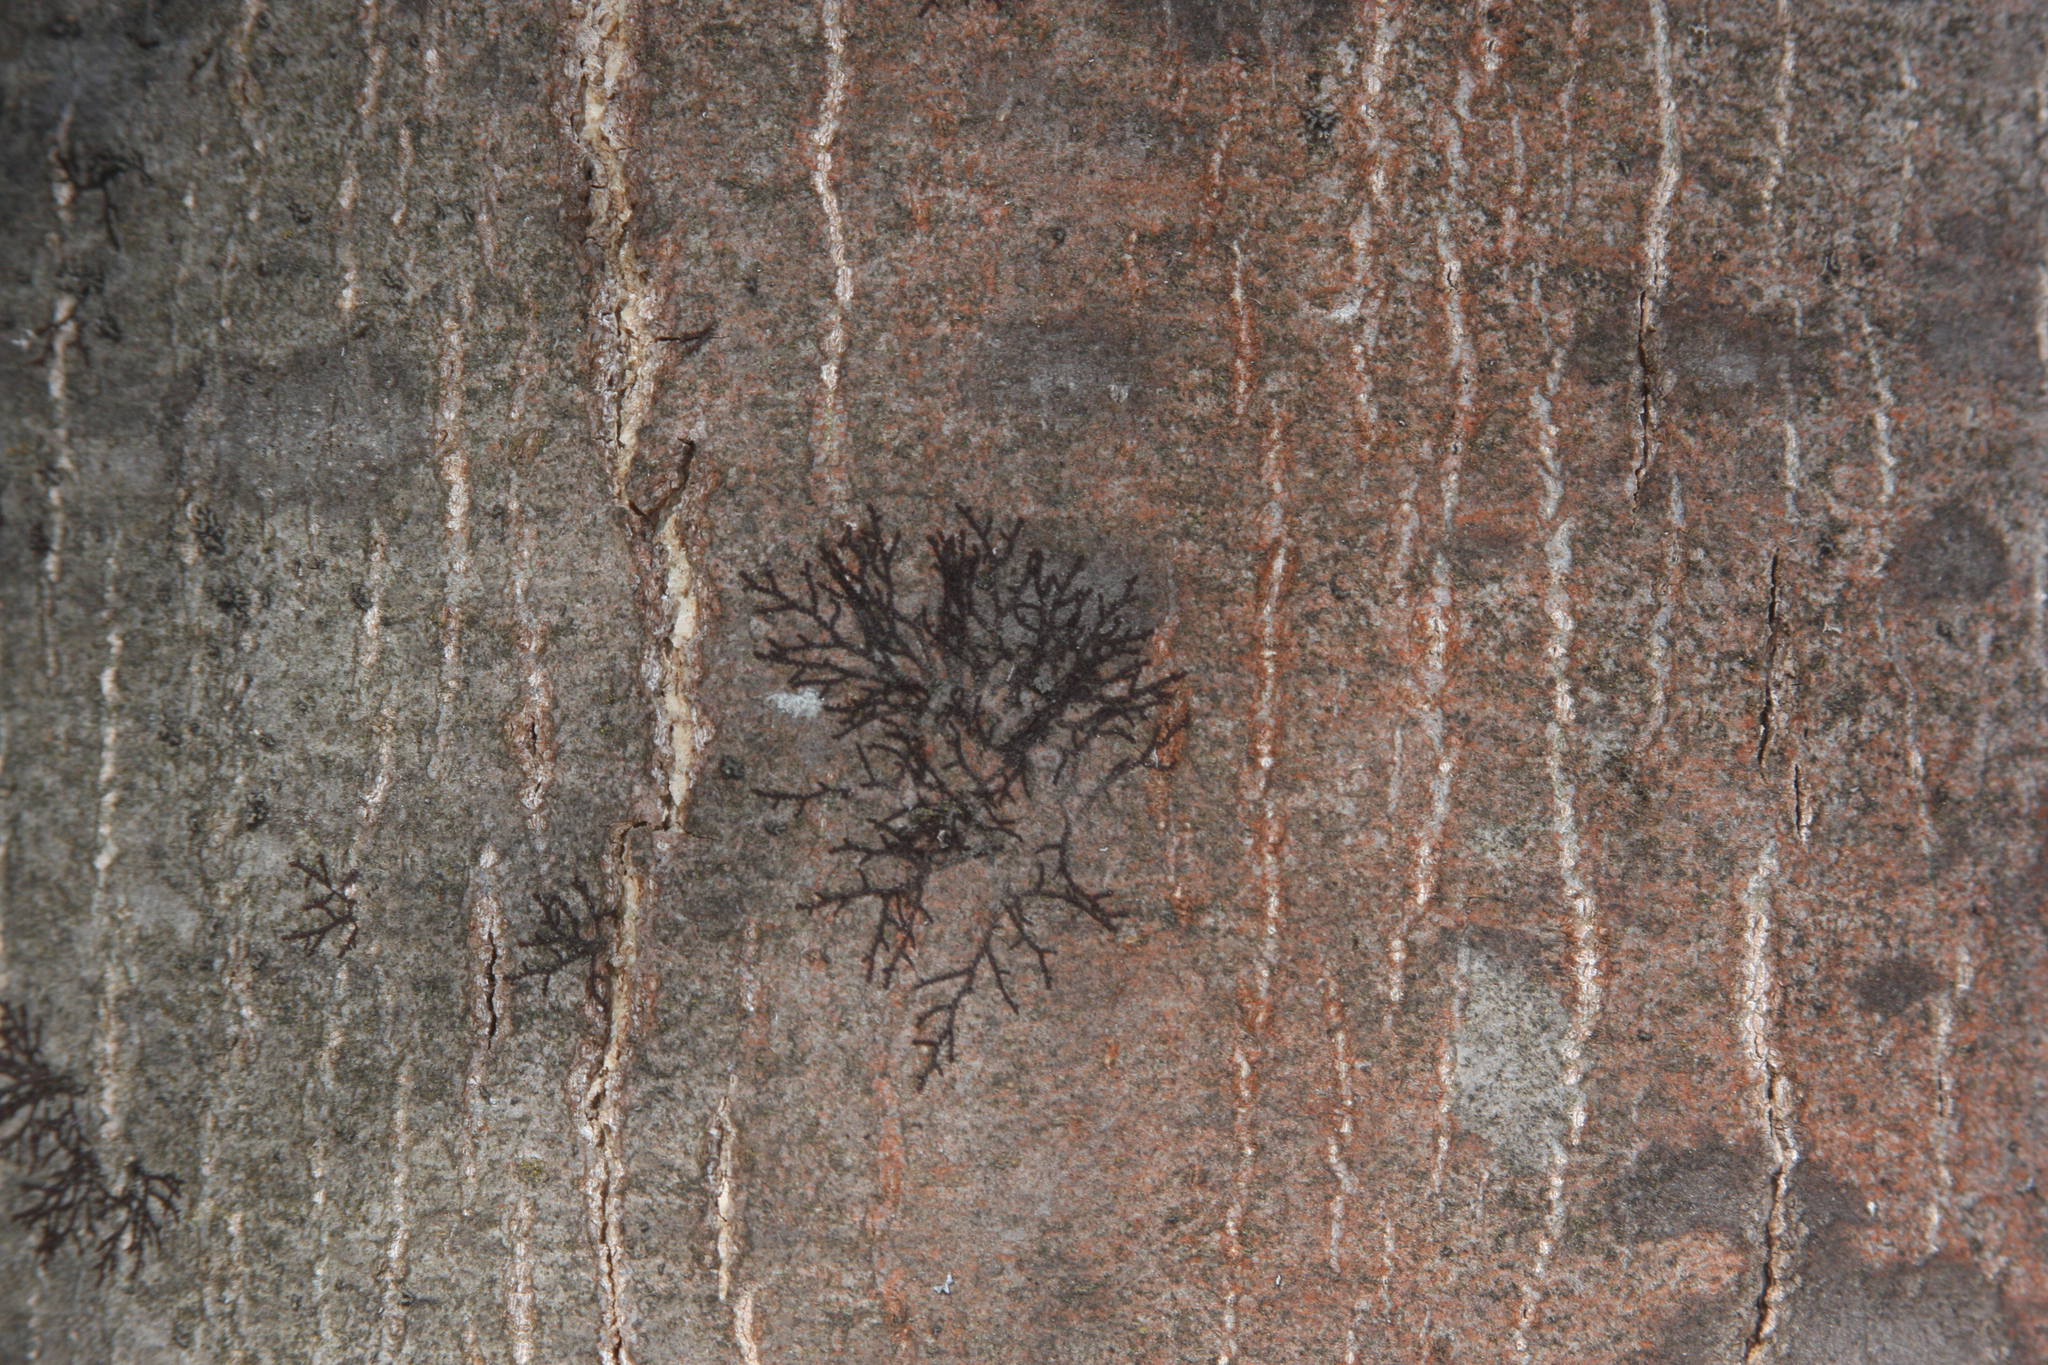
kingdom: Plantae
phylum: Marchantiophyta
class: Jungermanniopsida
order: Porellales
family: Frullaniaceae
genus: Frullania
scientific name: Frullania eboracensis
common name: New york scalewort
